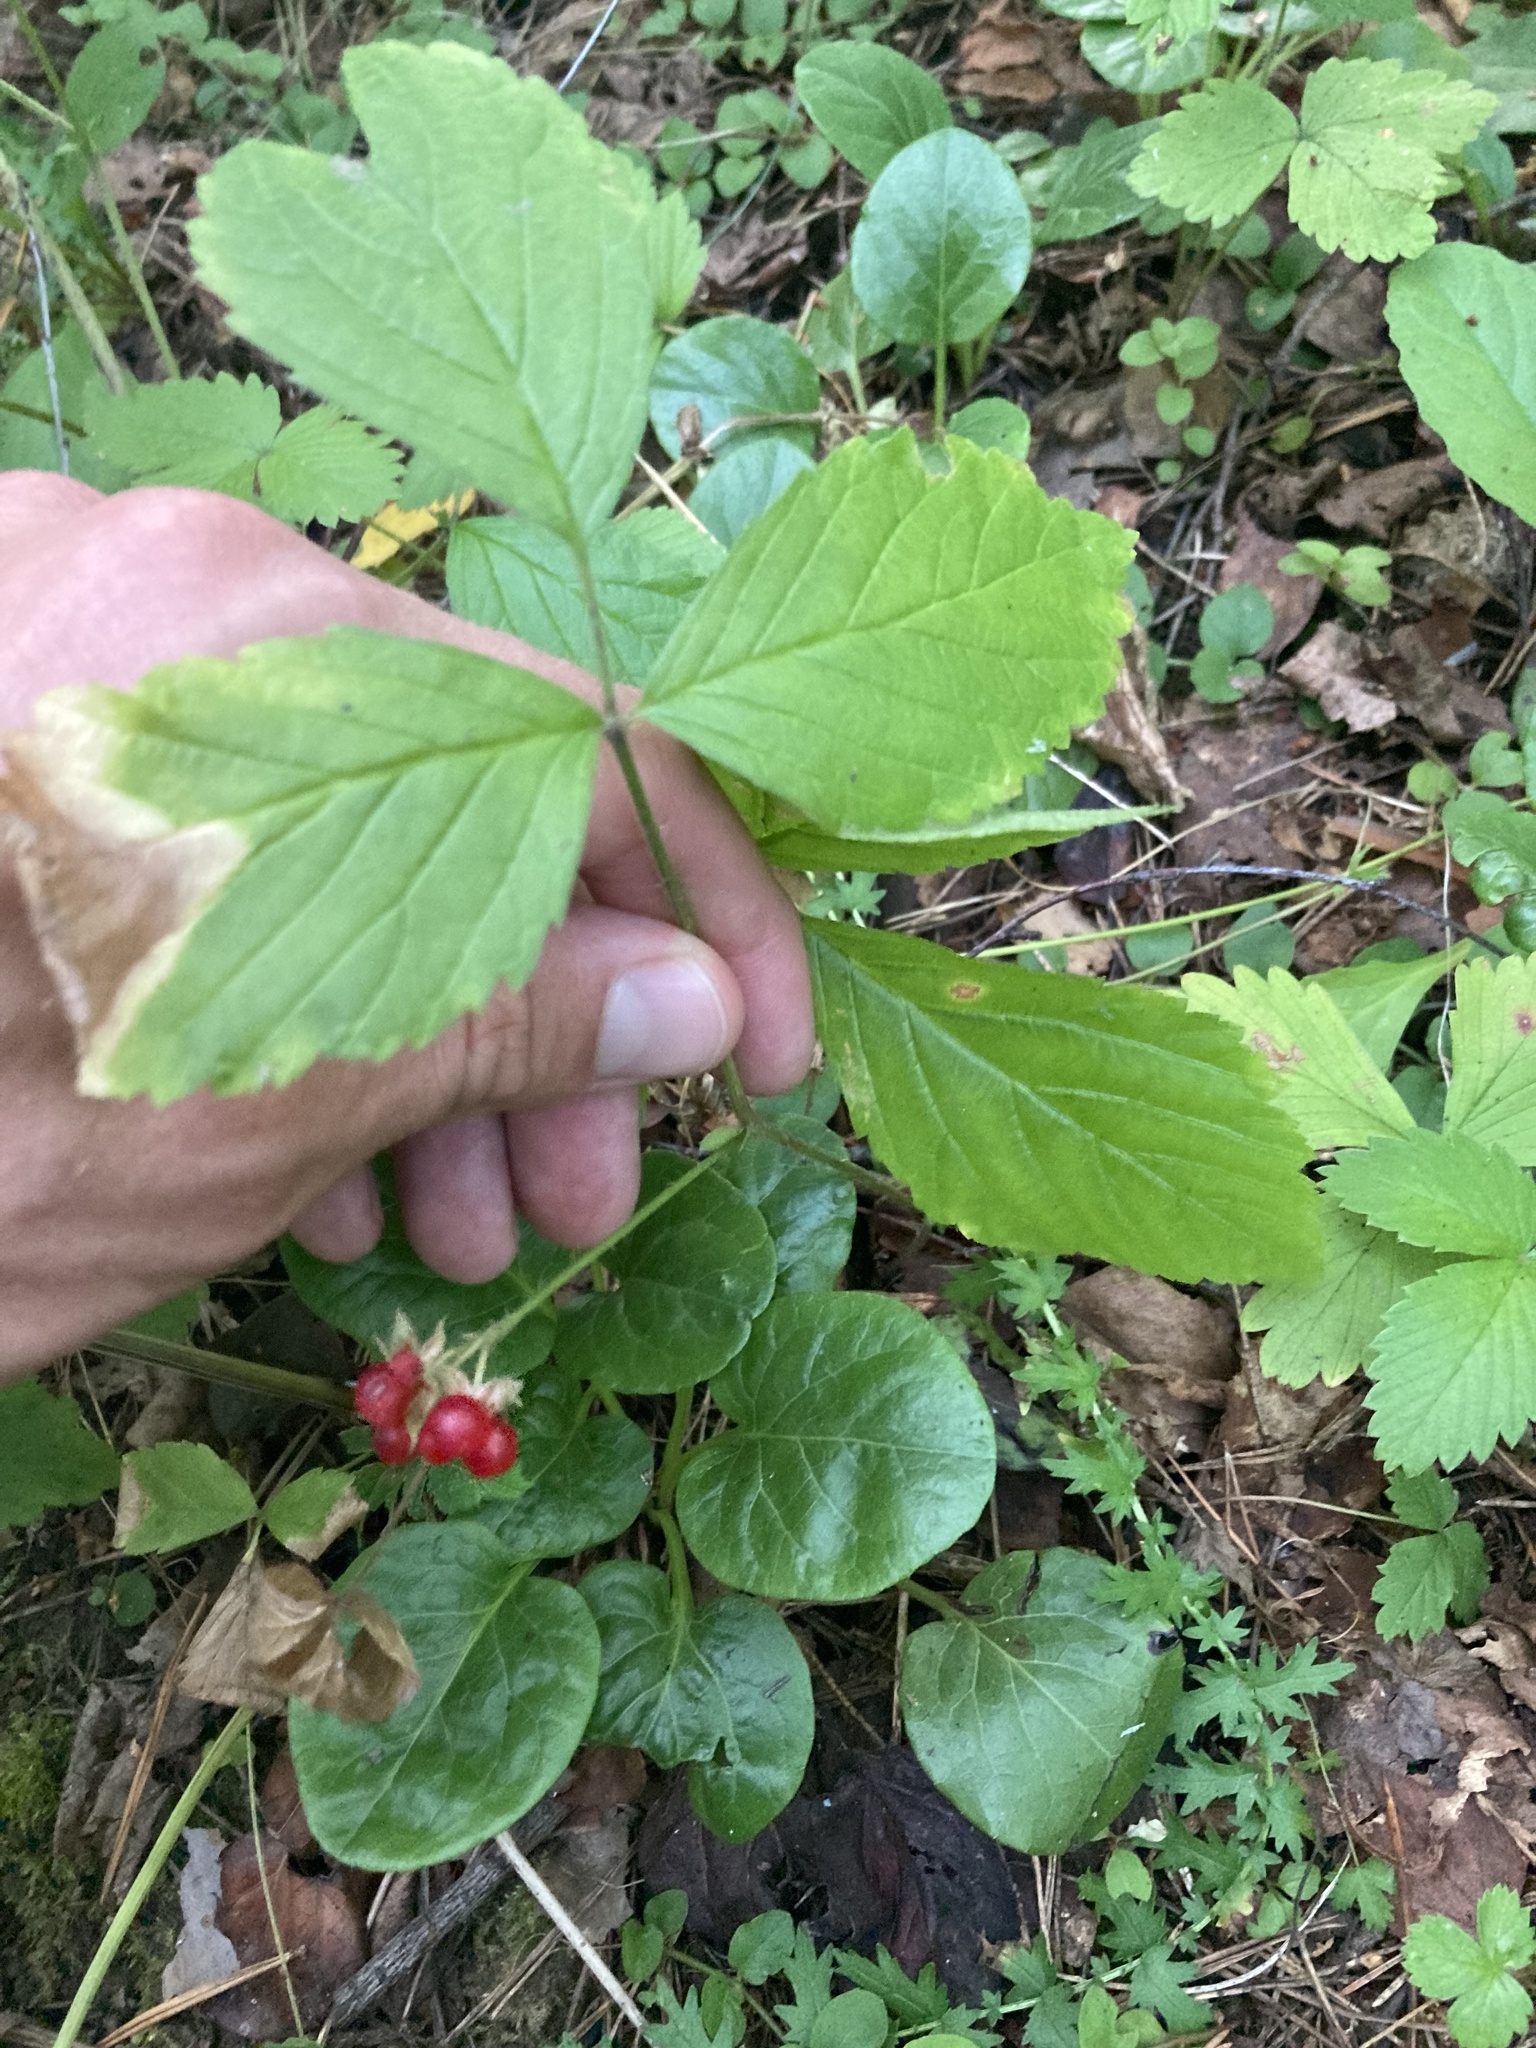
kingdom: Plantae
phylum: Tracheophyta
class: Magnoliopsida
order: Rosales
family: Rosaceae
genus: Rubus
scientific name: Rubus saxatilis
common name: Stone bramble
